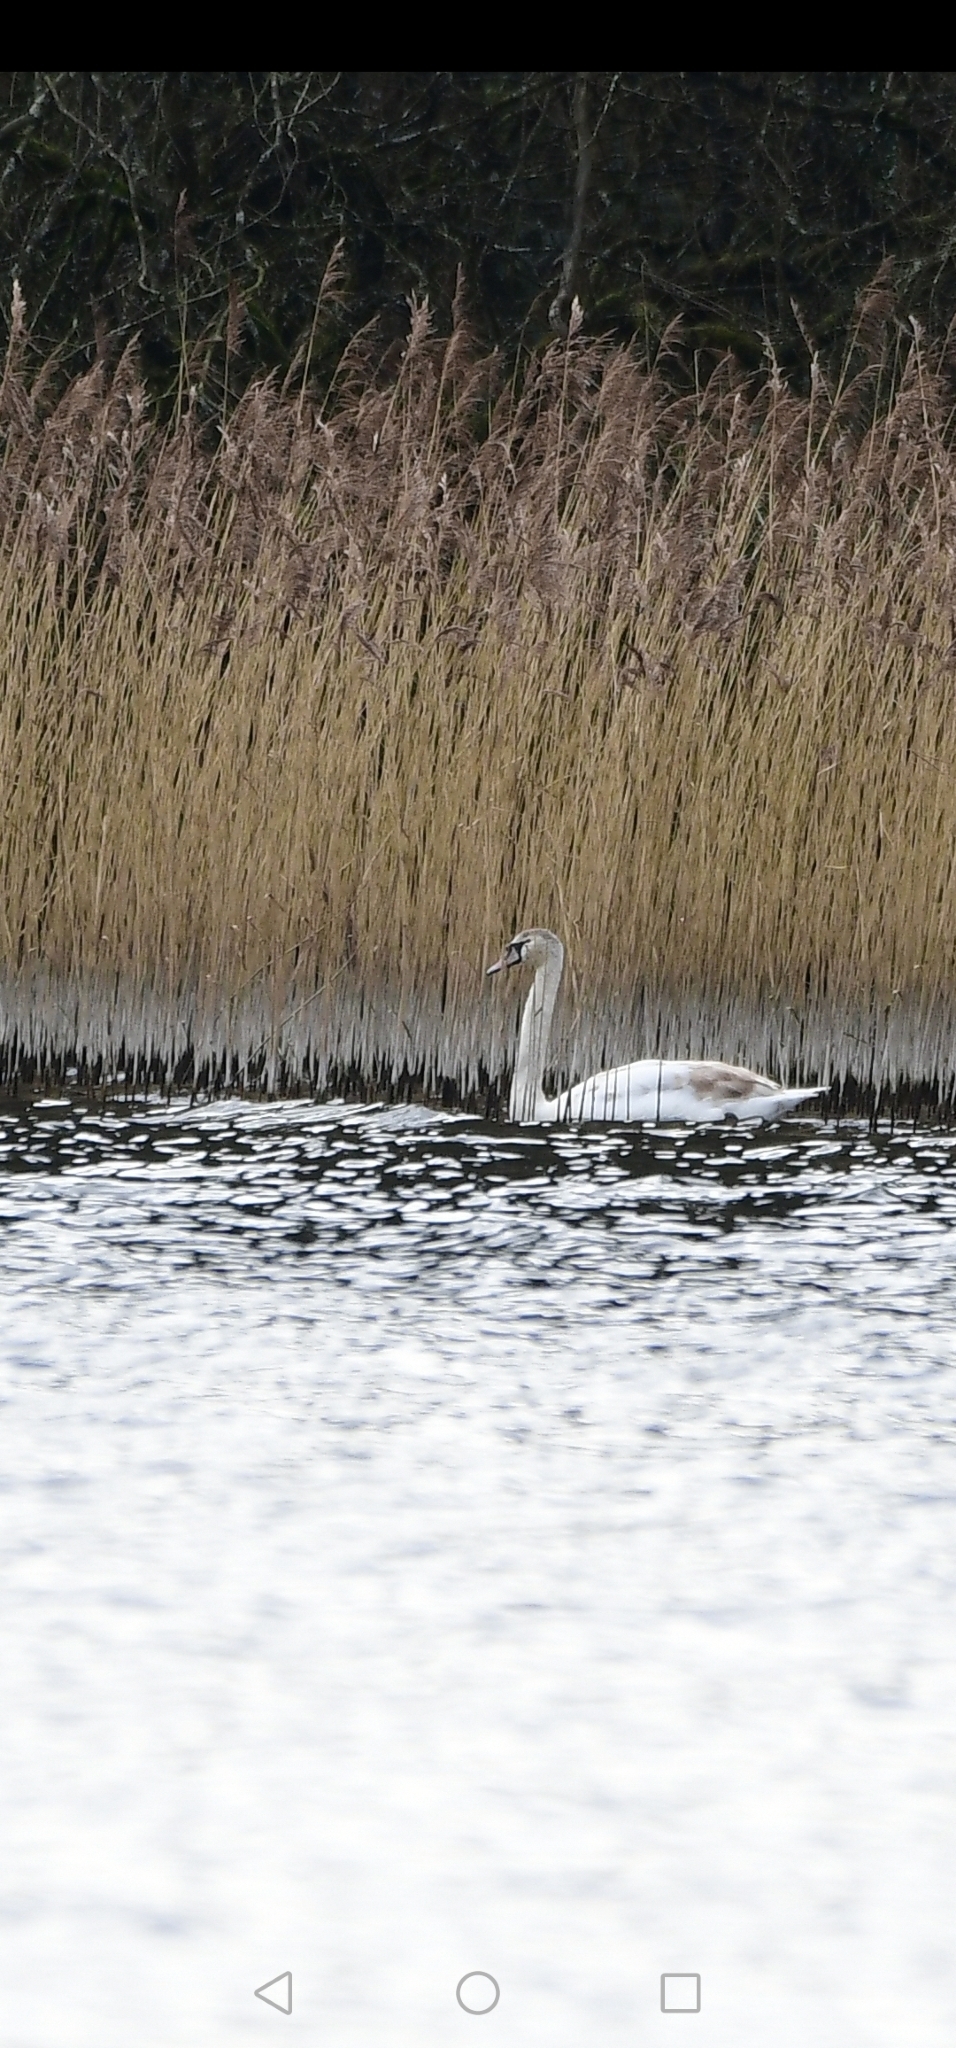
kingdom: Animalia
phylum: Chordata
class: Aves
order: Anseriformes
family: Anatidae
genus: Cygnus
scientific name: Cygnus olor
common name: Mute swan
